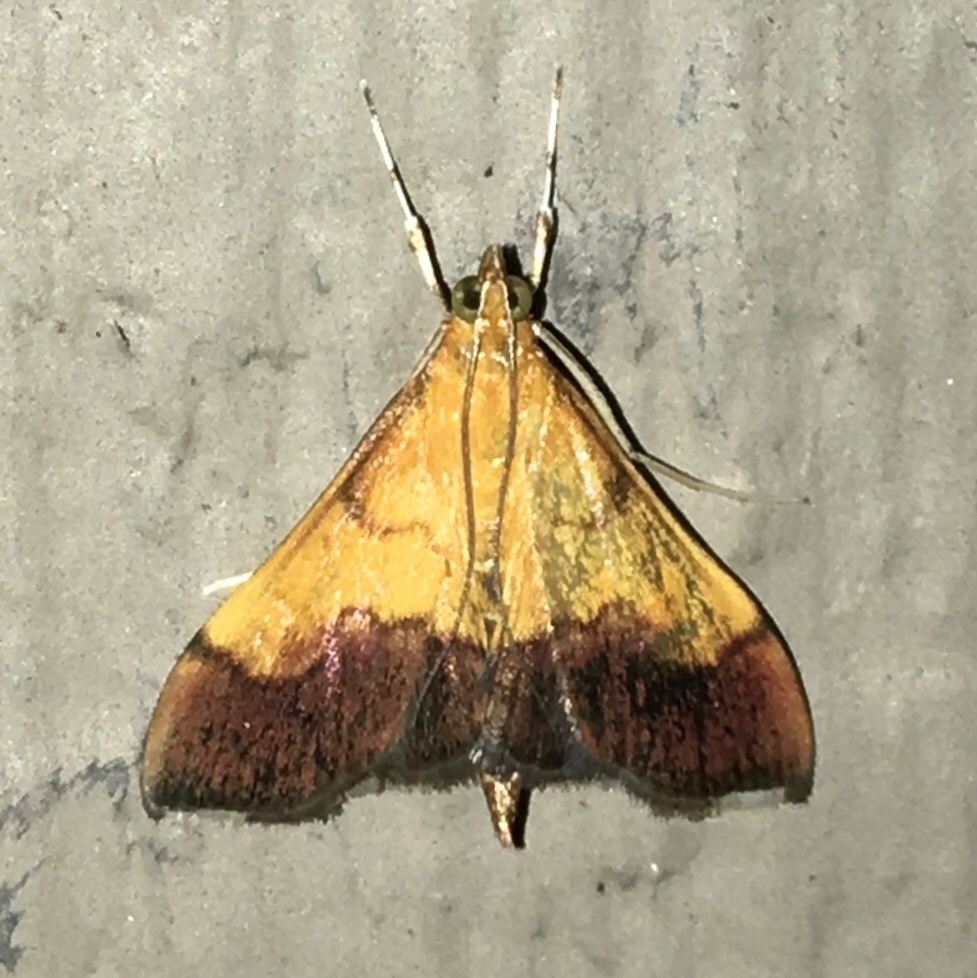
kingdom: Animalia
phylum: Arthropoda
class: Insecta
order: Lepidoptera
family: Crambidae
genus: Pyrausta
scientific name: Pyrausta bicoloralis
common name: Bicolored pyrausta moth
